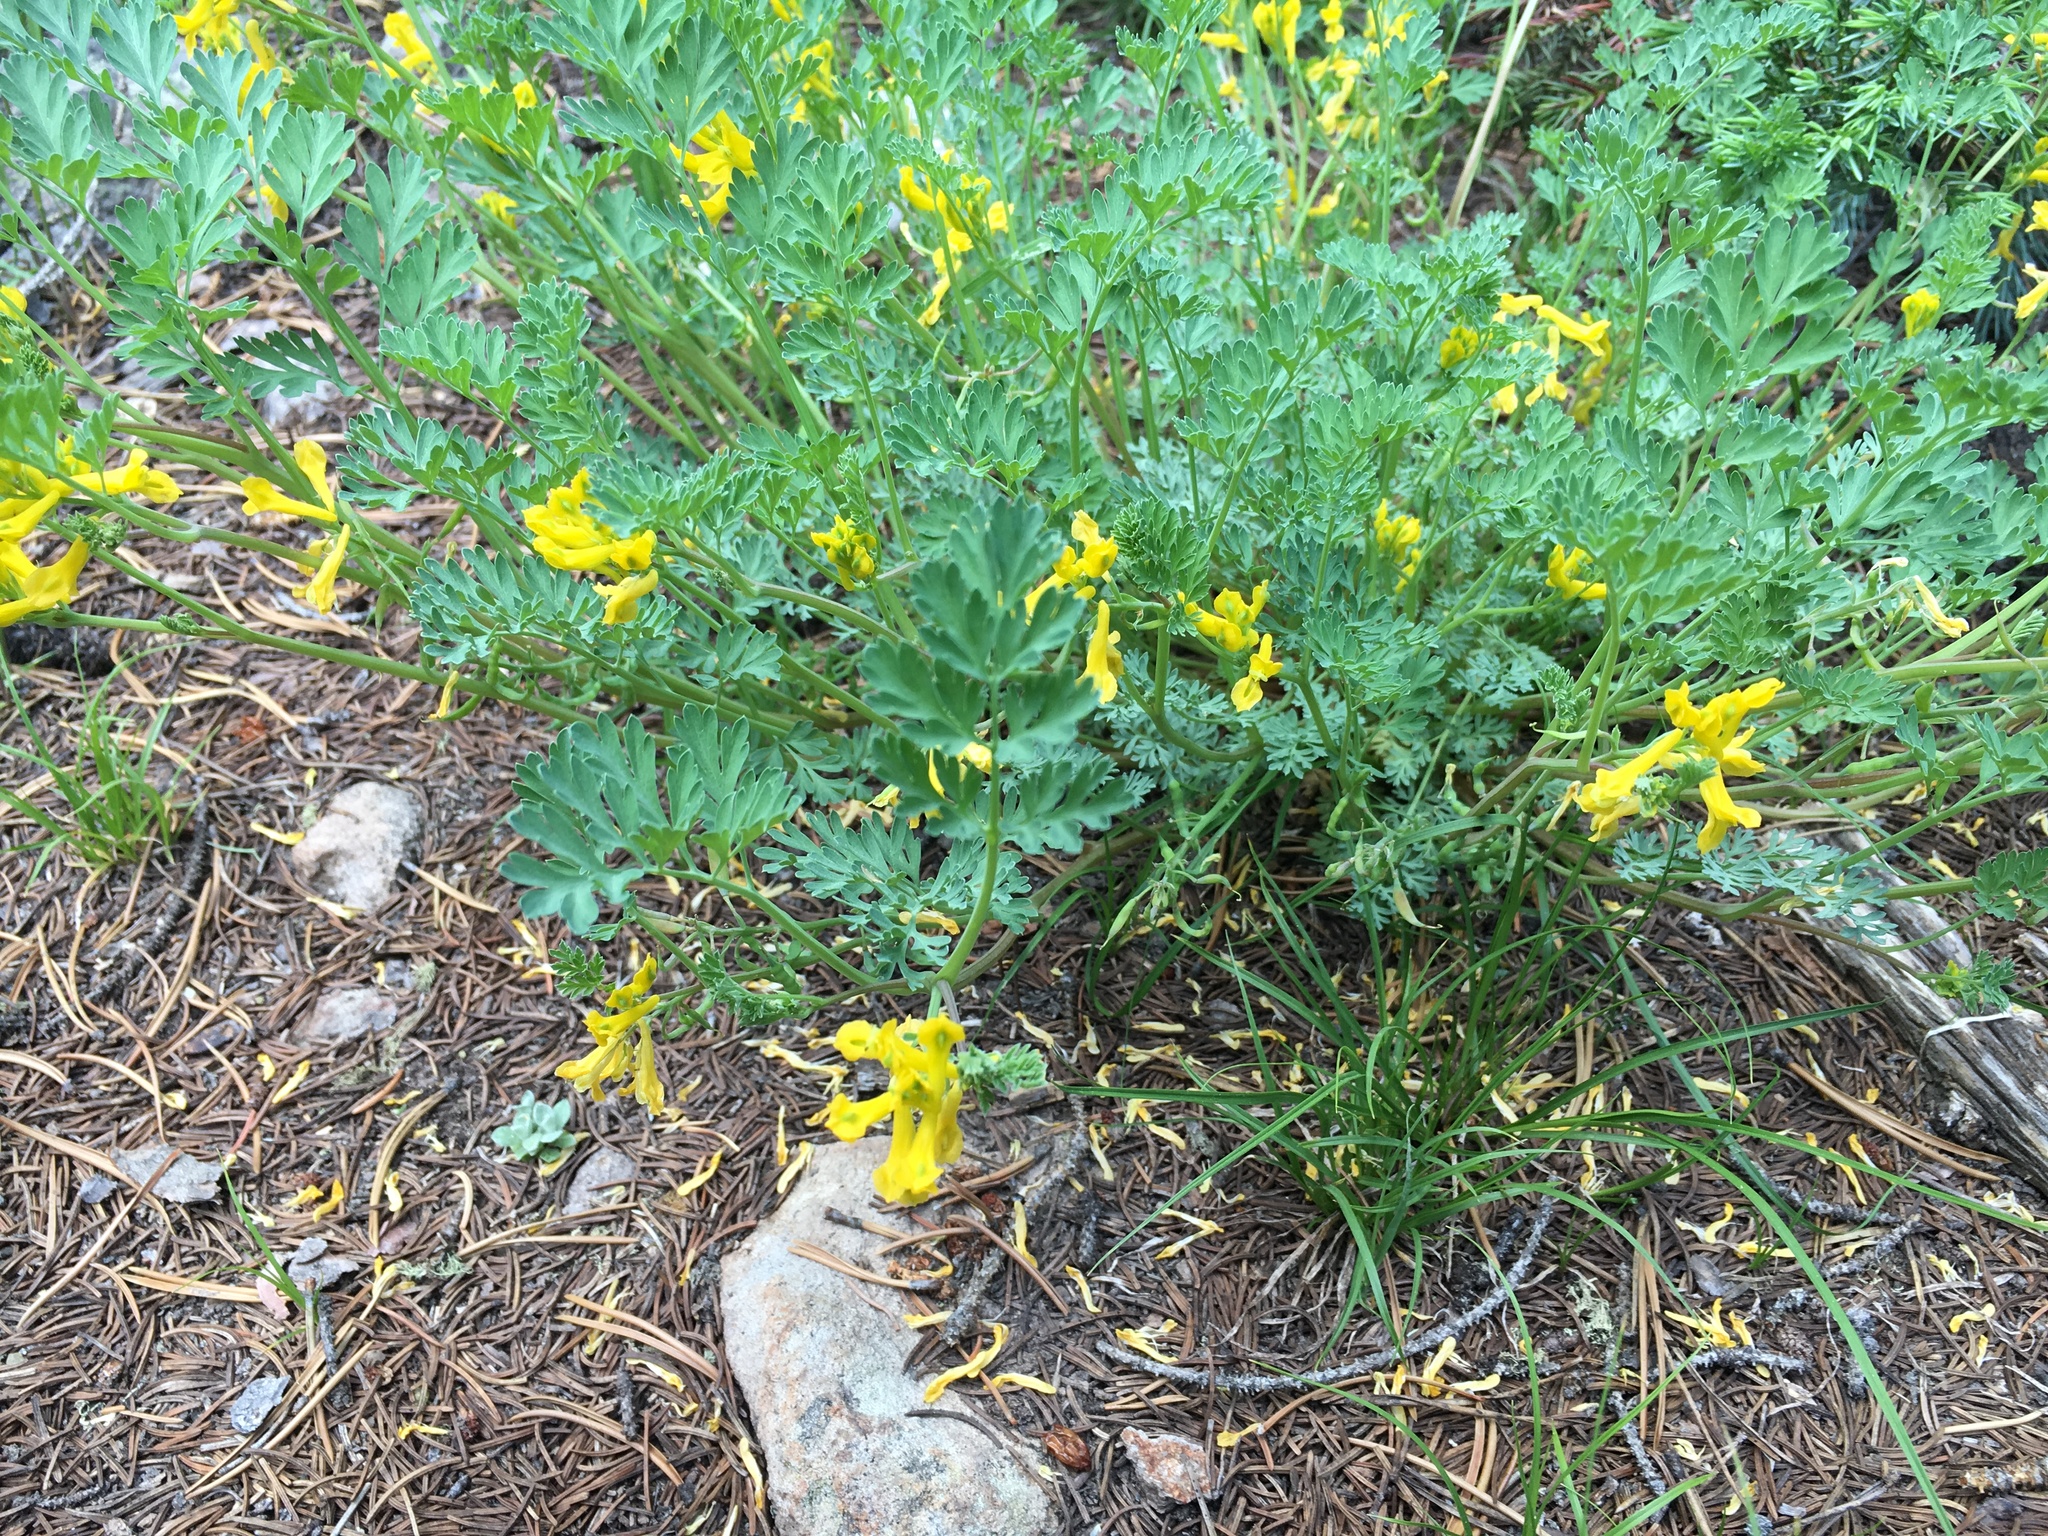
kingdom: Plantae
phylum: Tracheophyta
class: Magnoliopsida
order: Ranunculales
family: Papaveraceae
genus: Corydalis
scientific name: Corydalis aurea
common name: Golden corydalis
